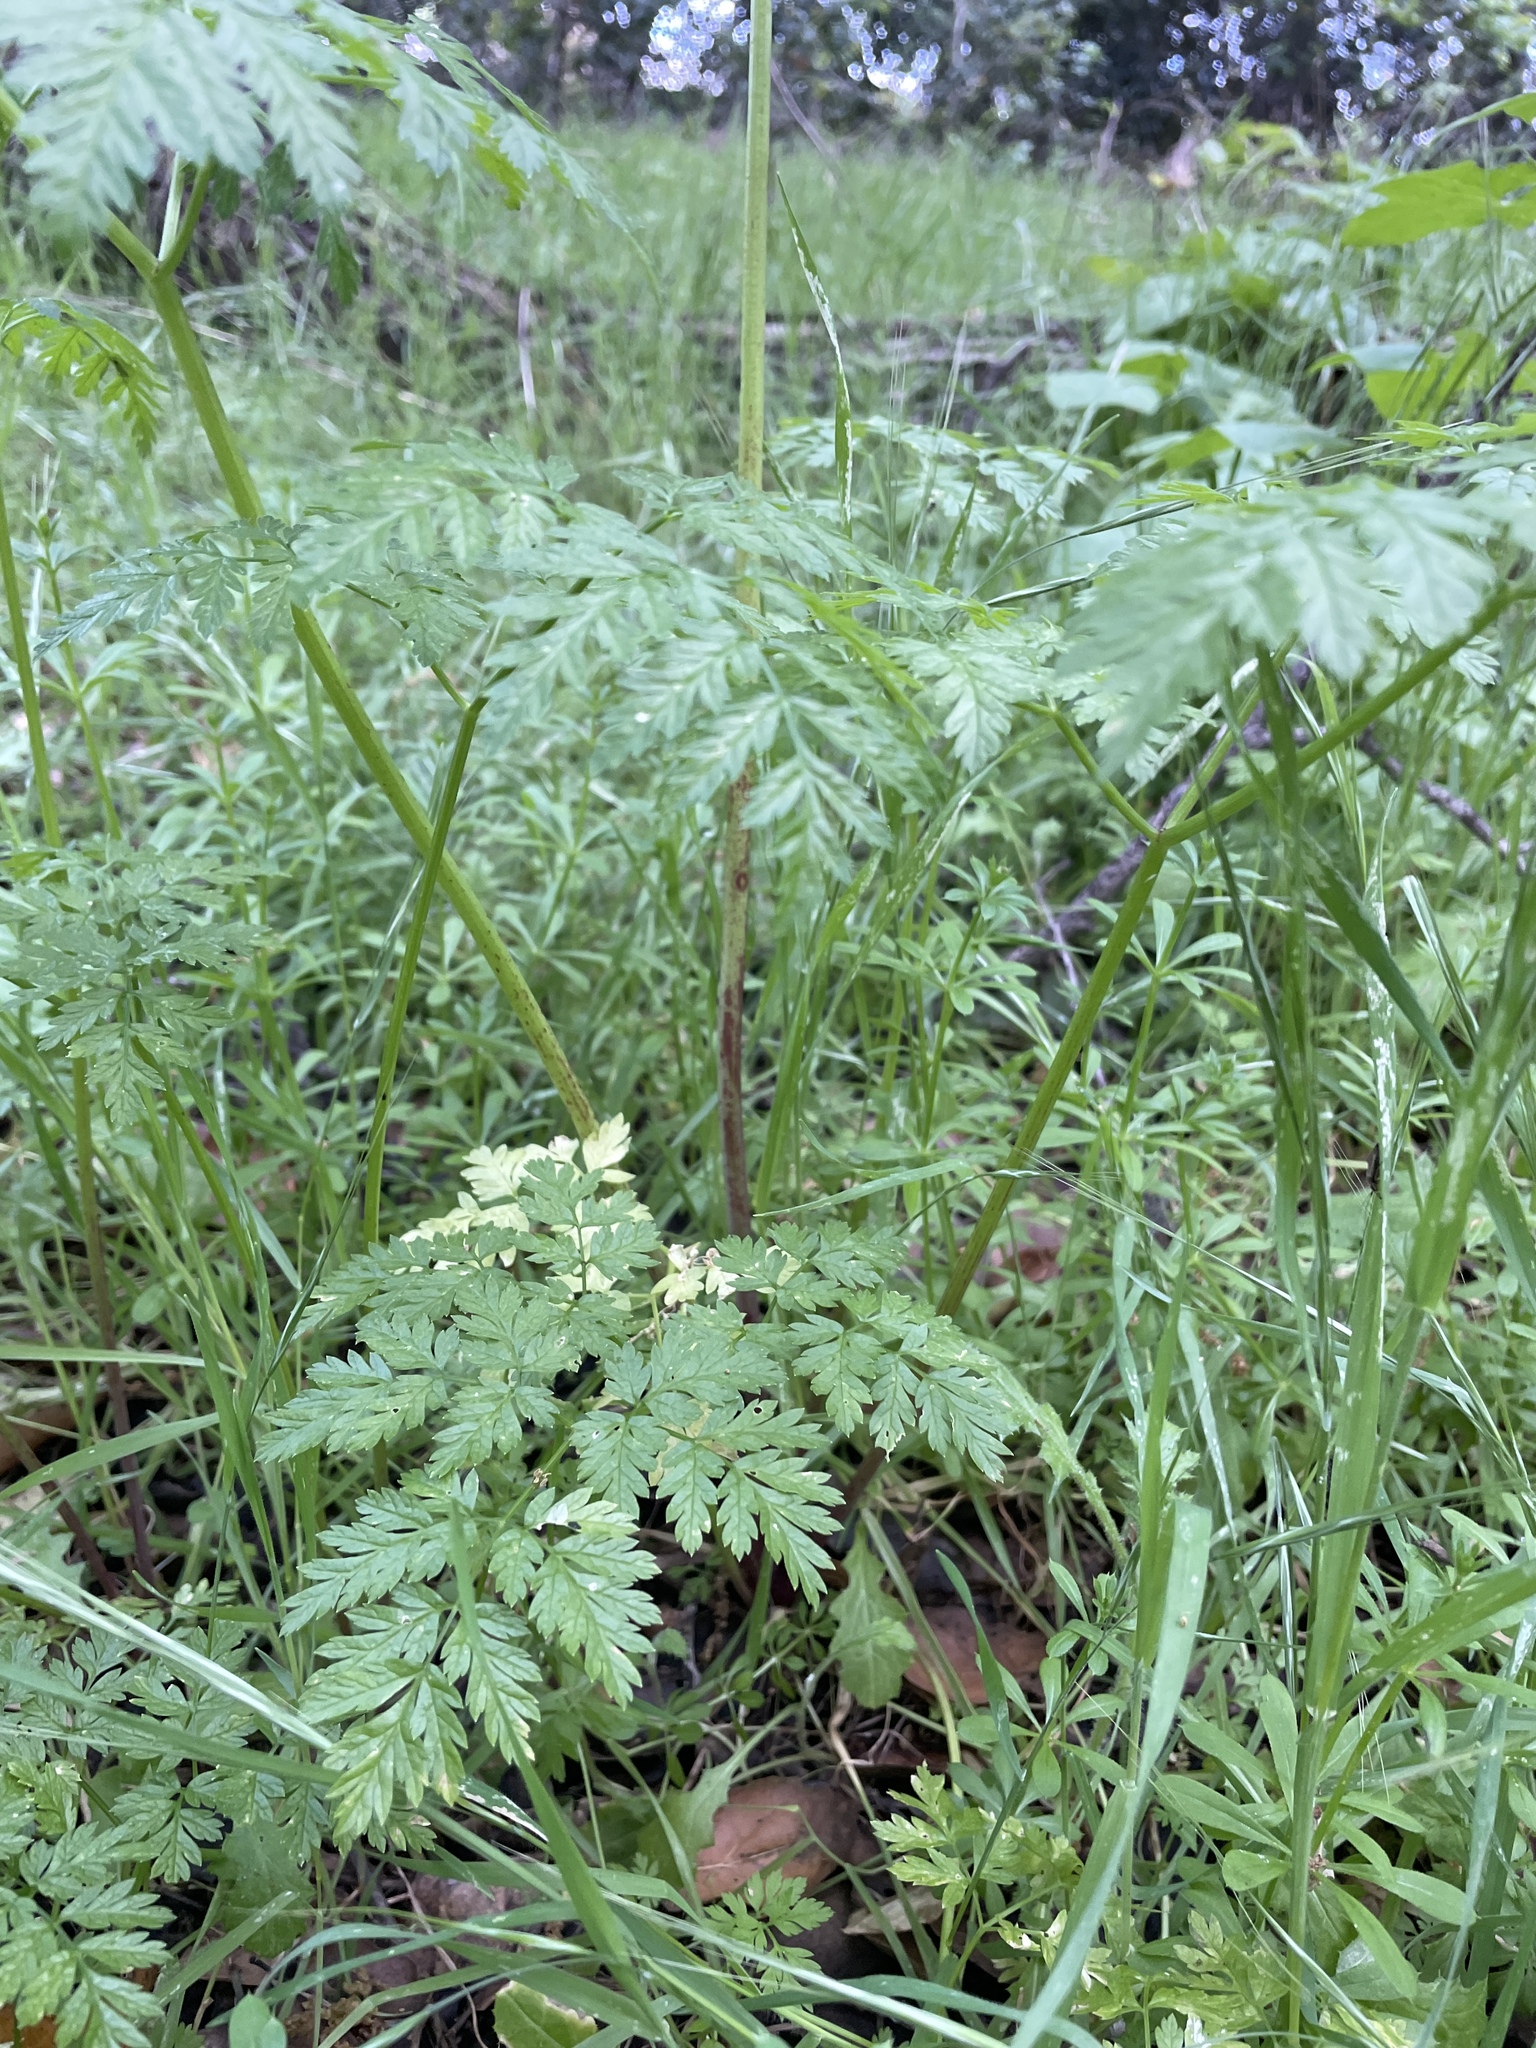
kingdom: Plantae
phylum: Tracheophyta
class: Magnoliopsida
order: Apiales
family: Apiaceae
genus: Conium
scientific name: Conium maculatum
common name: Hemlock
